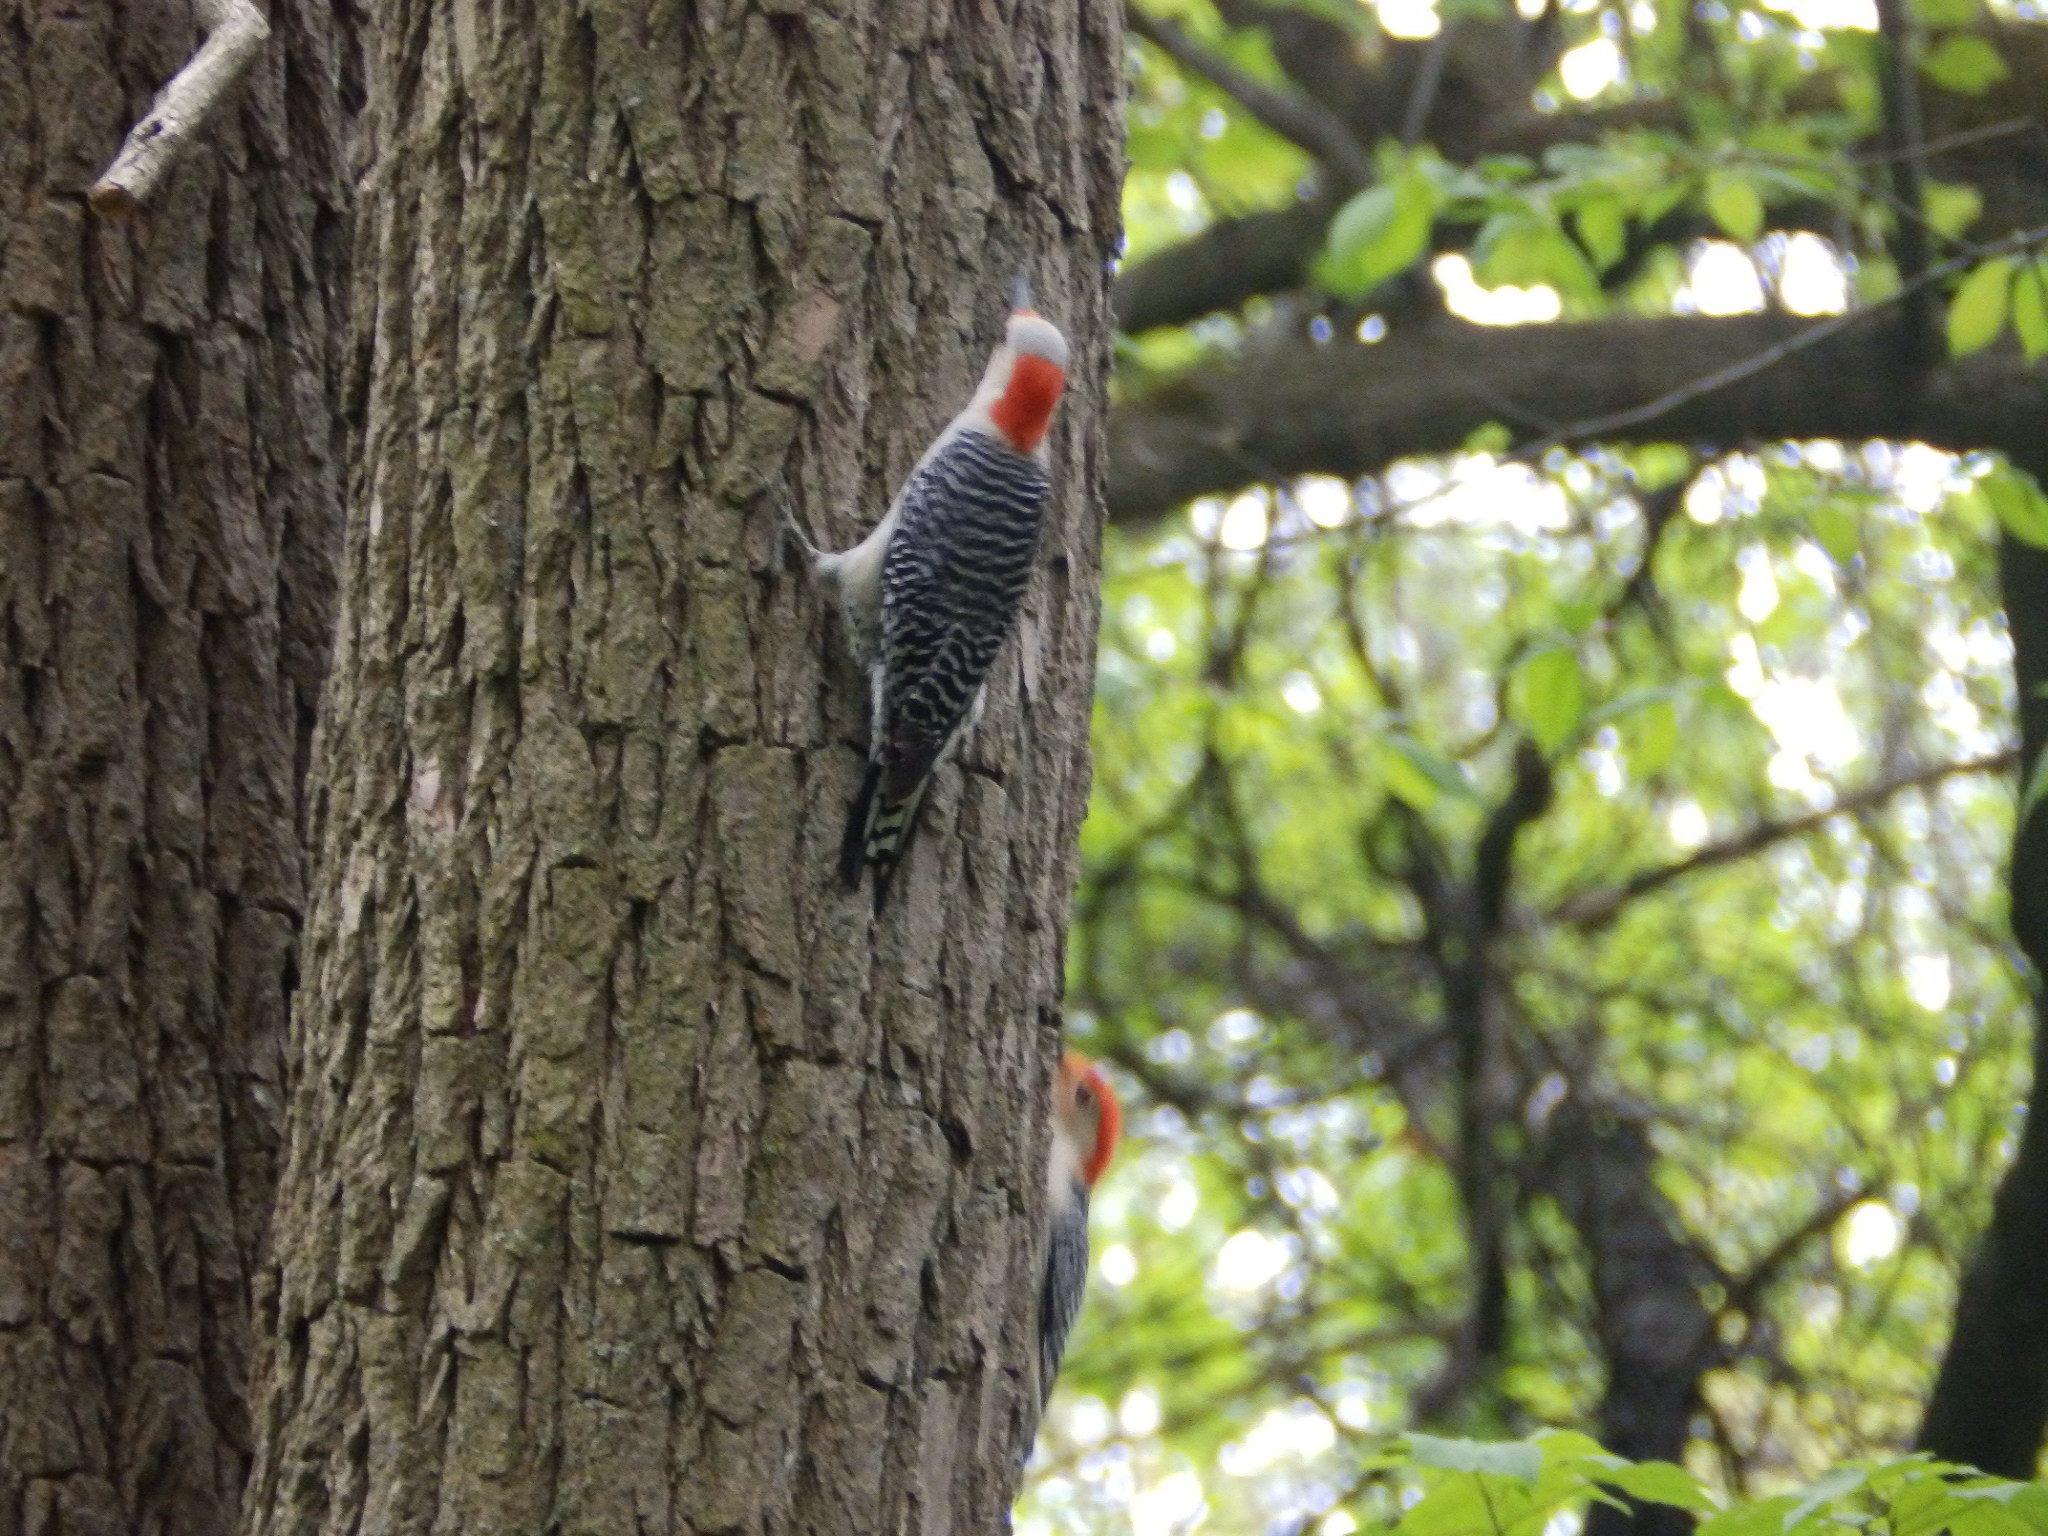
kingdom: Animalia
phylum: Chordata
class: Aves
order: Piciformes
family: Picidae
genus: Melanerpes
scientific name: Melanerpes carolinus
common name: Red-bellied woodpecker
